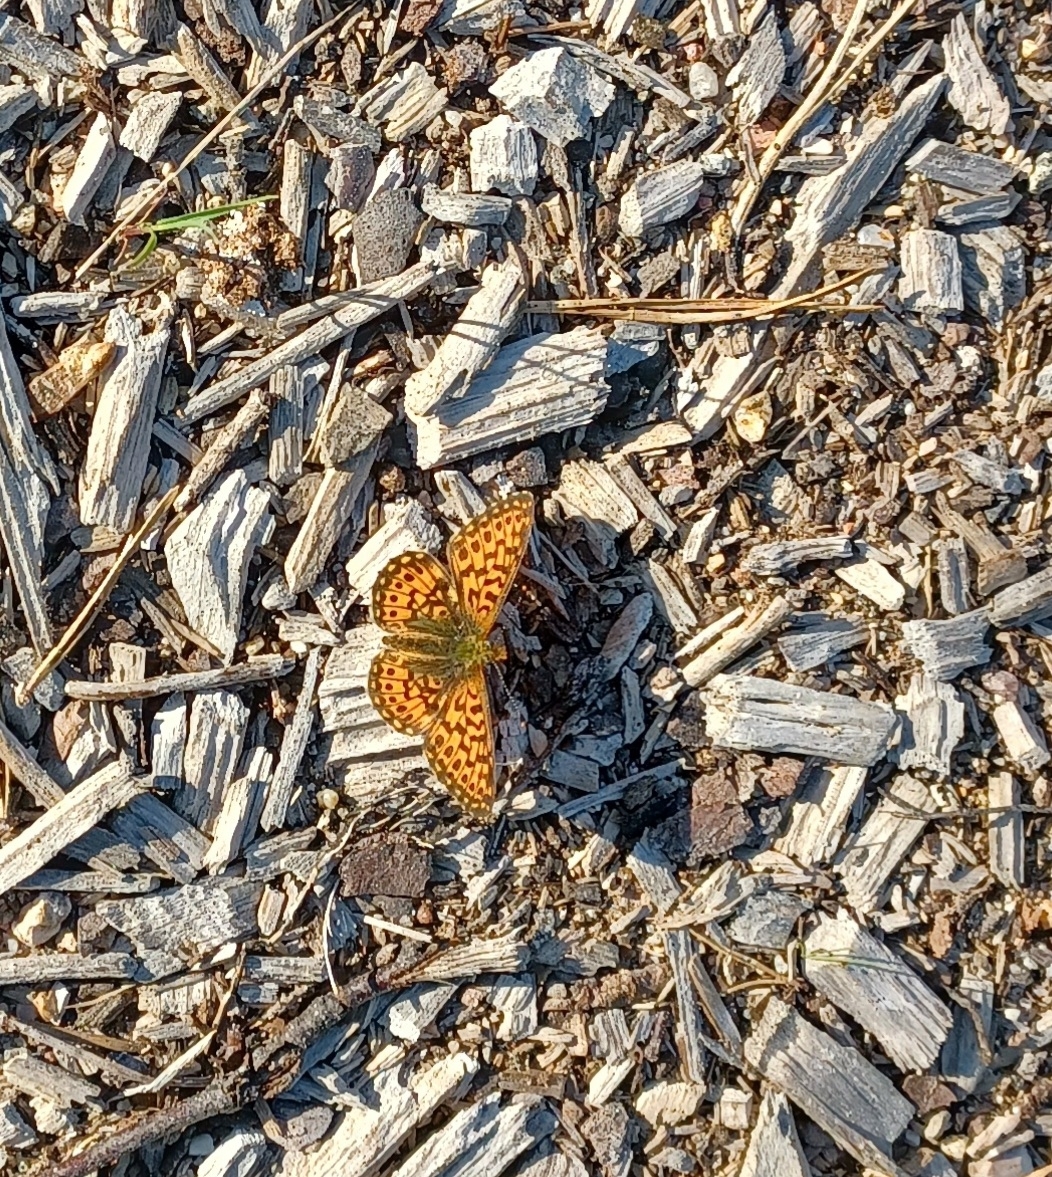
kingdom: Animalia
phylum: Arthropoda
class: Insecta
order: Lepidoptera
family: Nymphalidae
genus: Clossiana
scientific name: Clossiana euphrosyne
